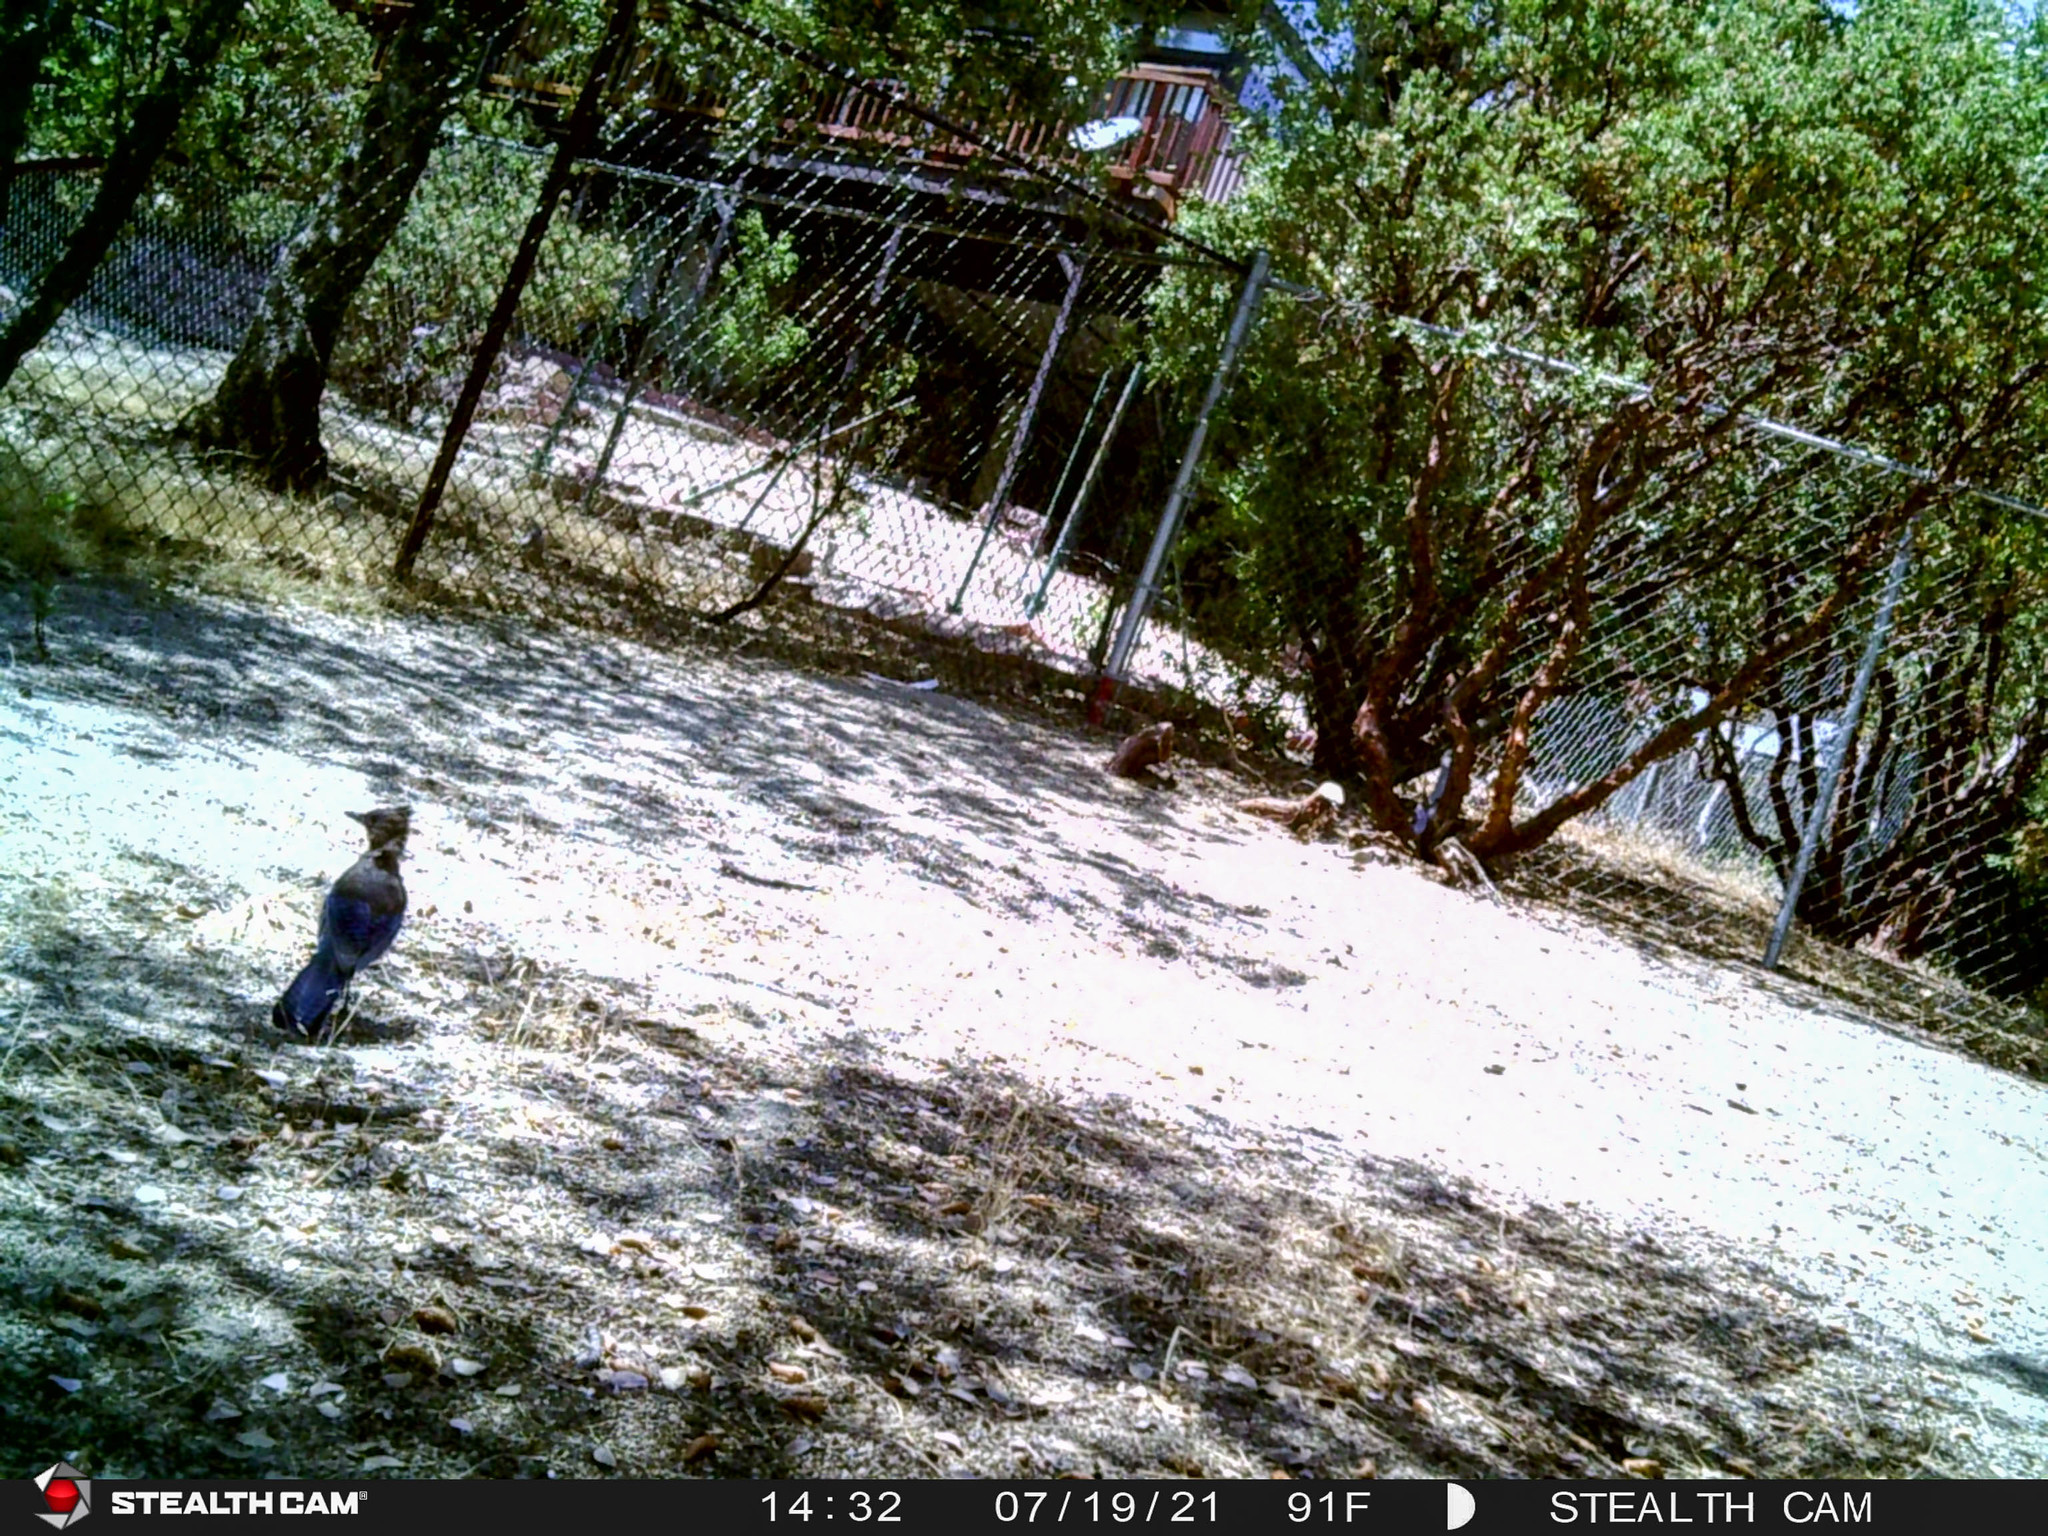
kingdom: Animalia
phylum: Chordata
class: Aves
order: Passeriformes
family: Corvidae
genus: Cyanocitta
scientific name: Cyanocitta stelleri
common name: Steller's jay
